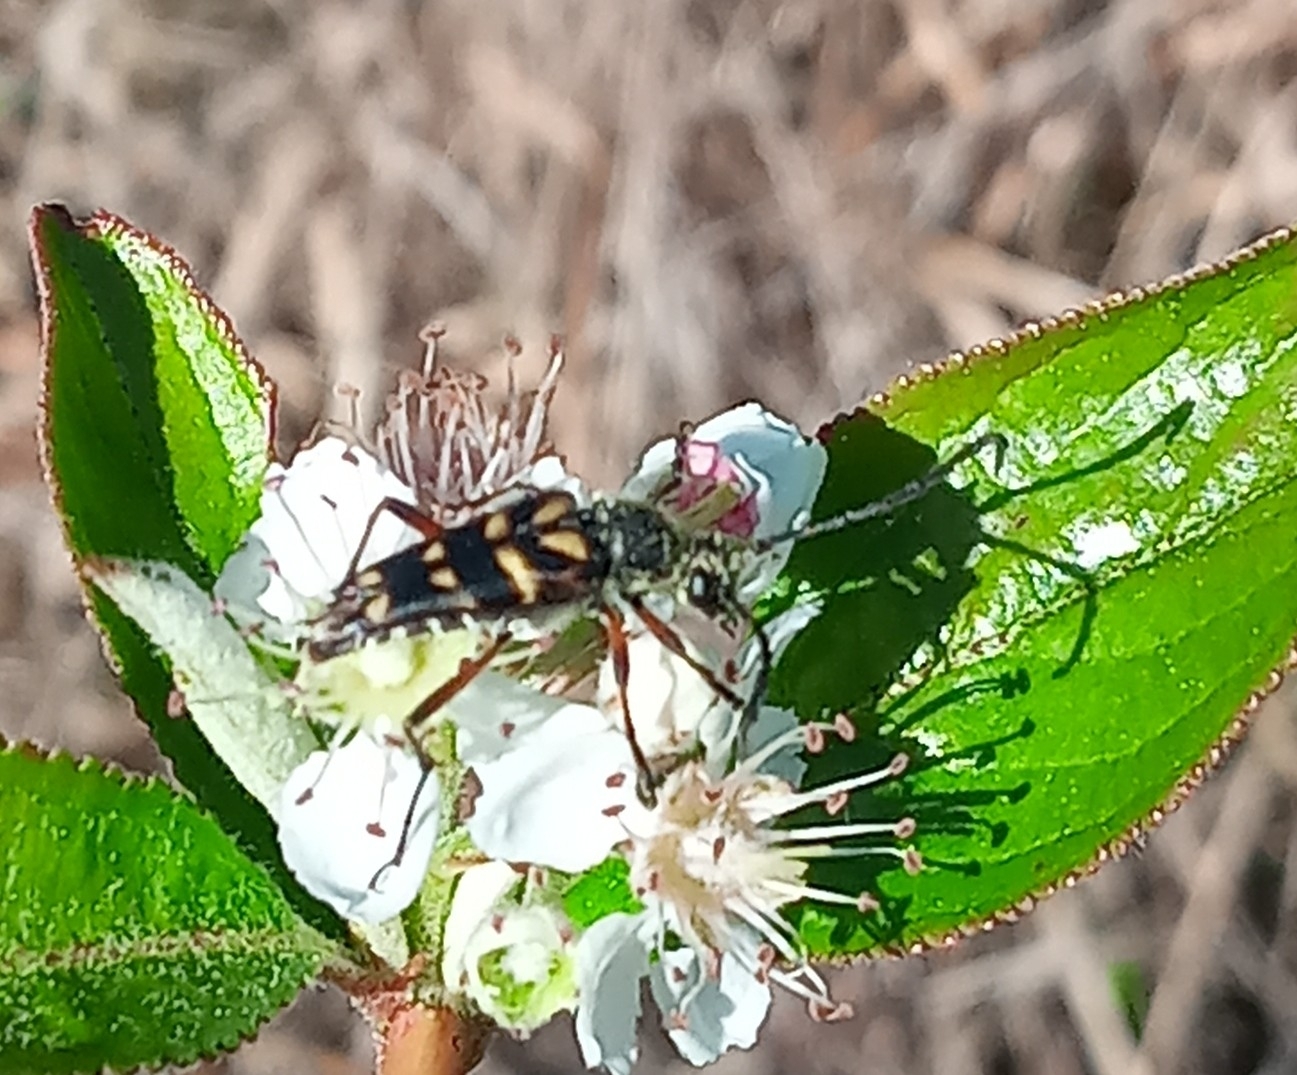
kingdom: Animalia
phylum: Arthropoda
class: Insecta
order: Coleoptera
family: Cerambycidae
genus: Typocerus
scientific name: Typocerus zebra
